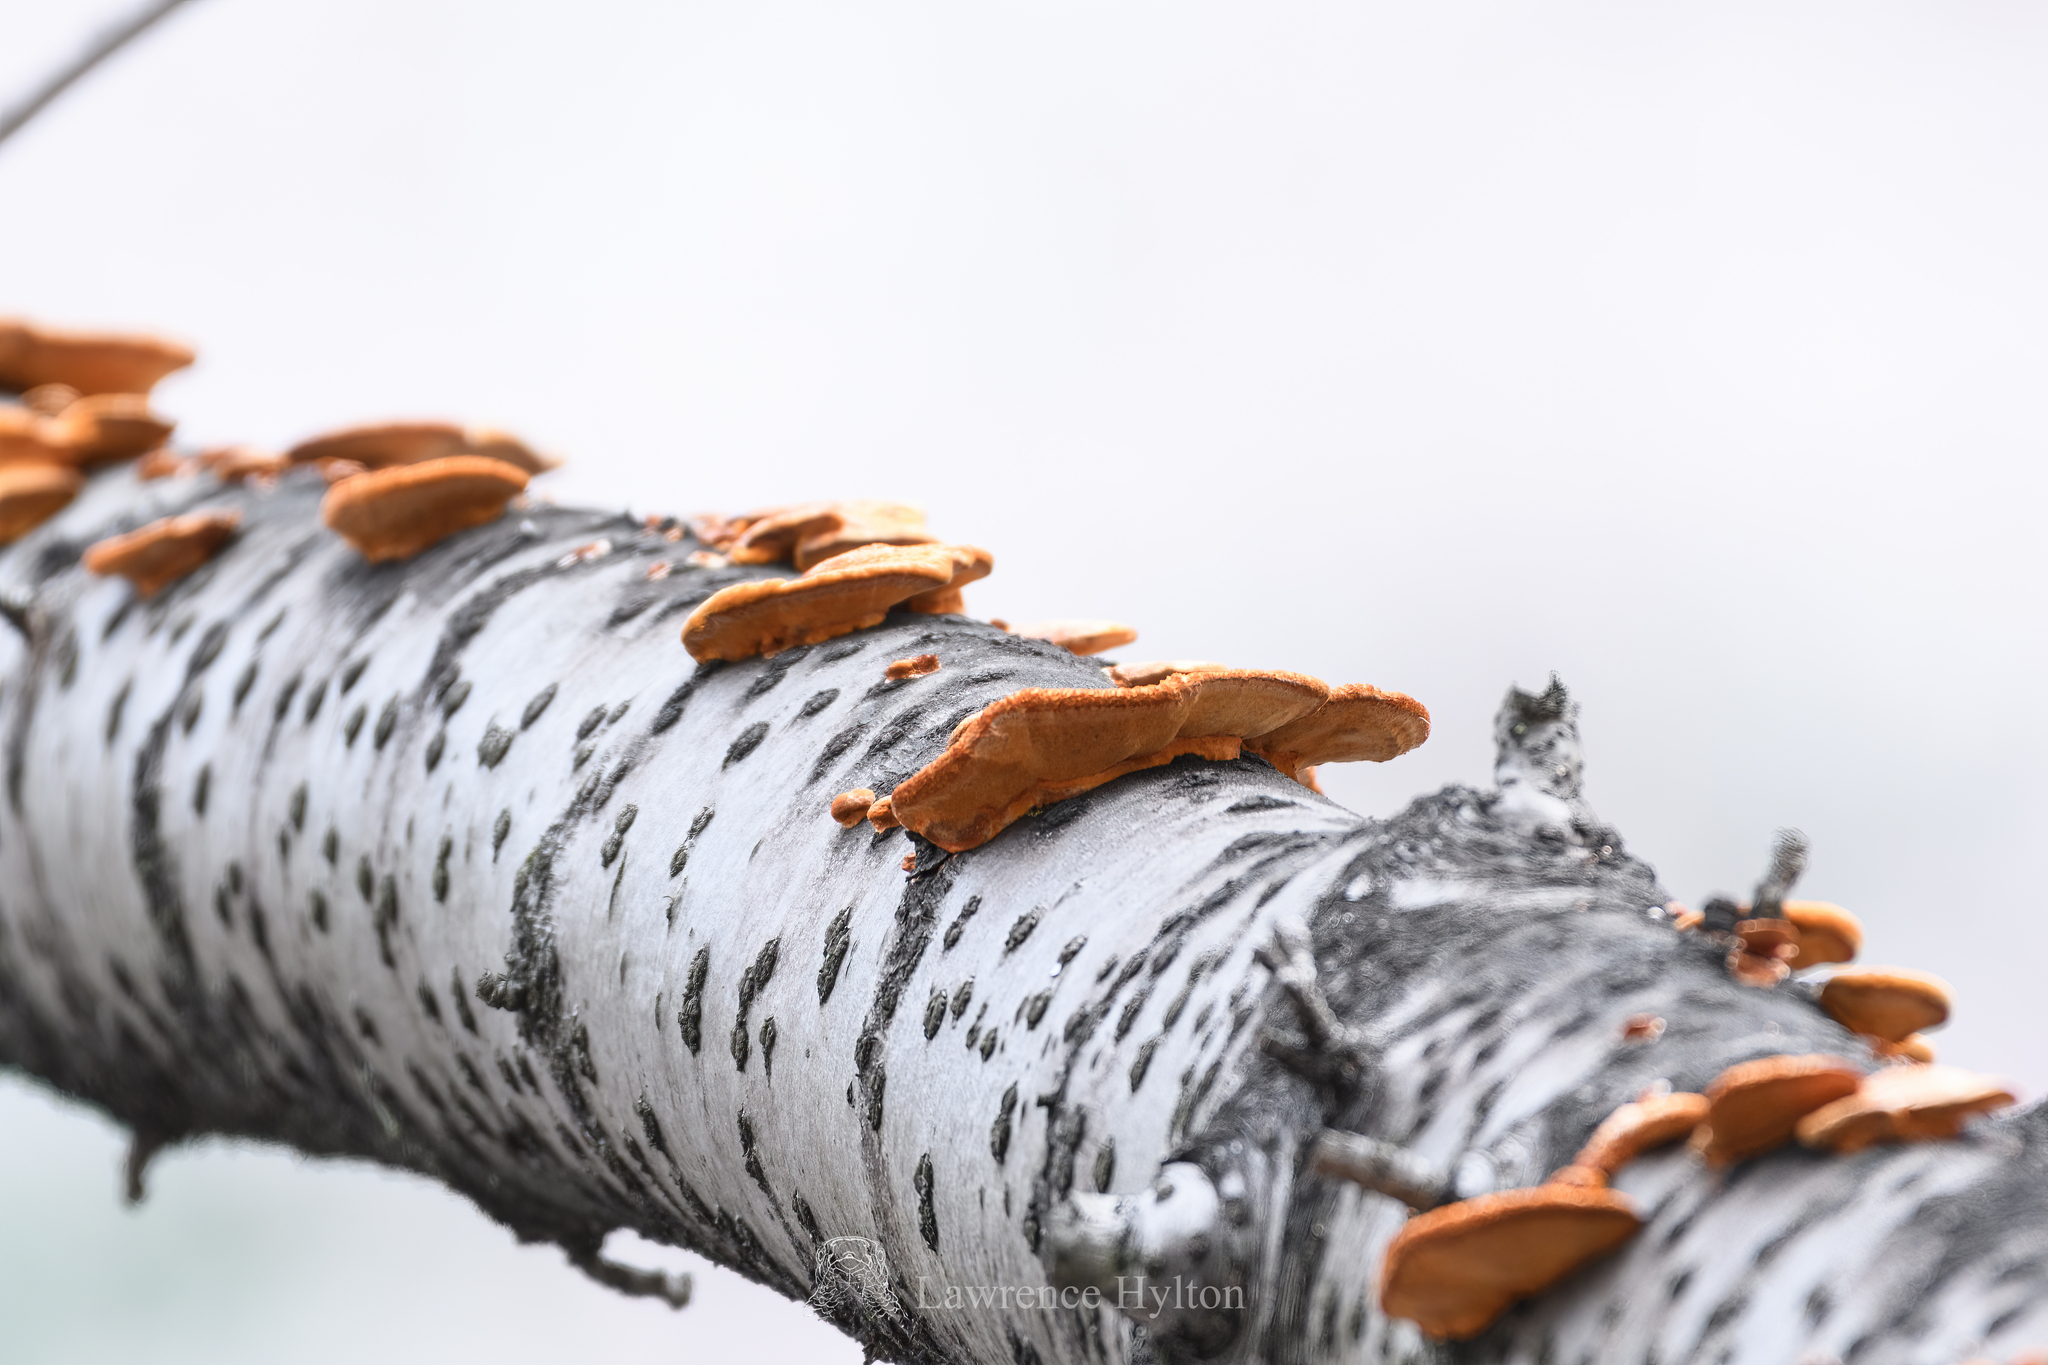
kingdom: Fungi
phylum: Basidiomycota
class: Agaricomycetes
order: Polyporales
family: Polyporaceae
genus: Trametes
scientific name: Trametes coccinea
